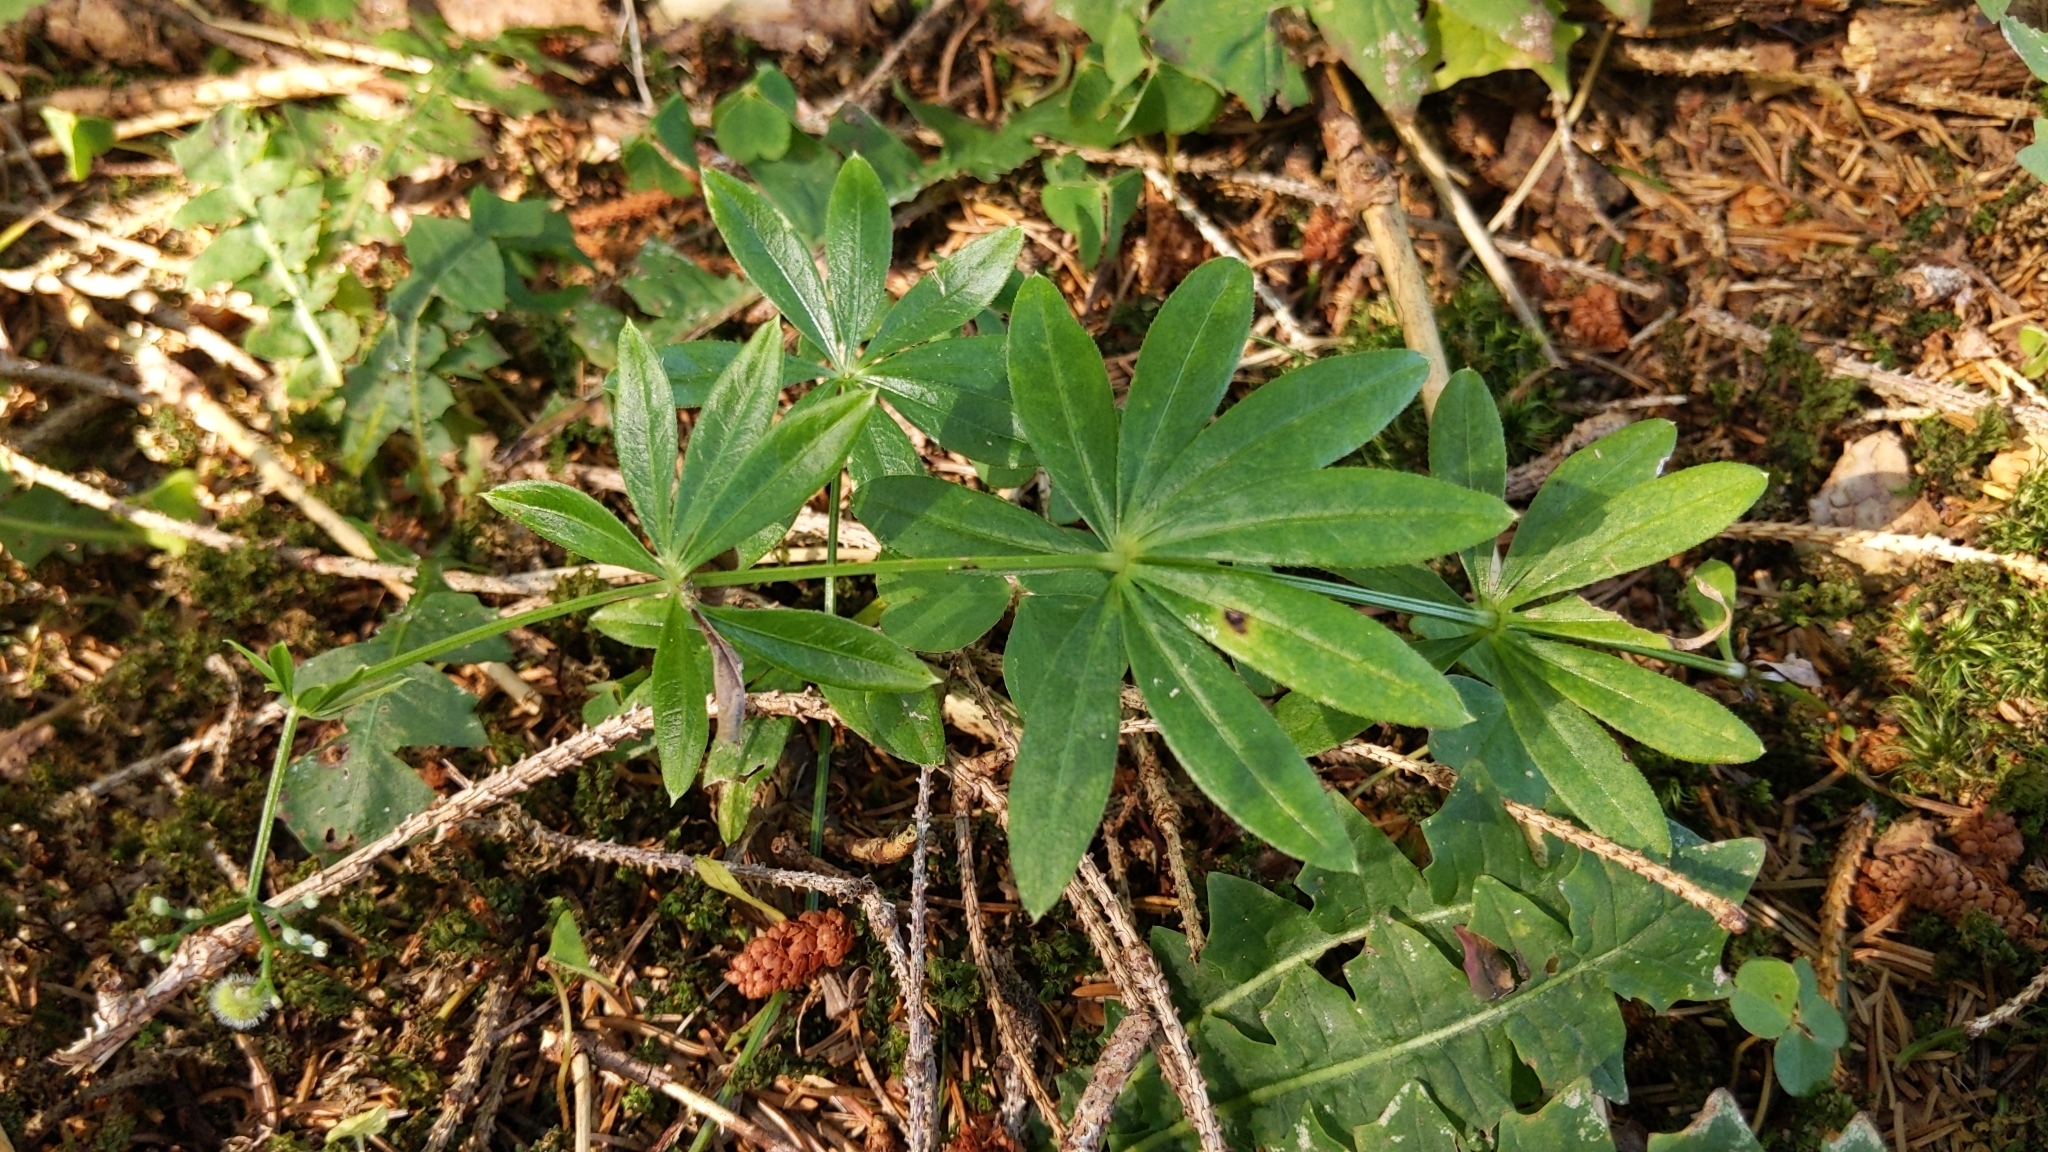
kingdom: Plantae
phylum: Tracheophyta
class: Magnoliopsida
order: Gentianales
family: Rubiaceae
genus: Galium
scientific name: Galium odoratum
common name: Sweet woodruff
